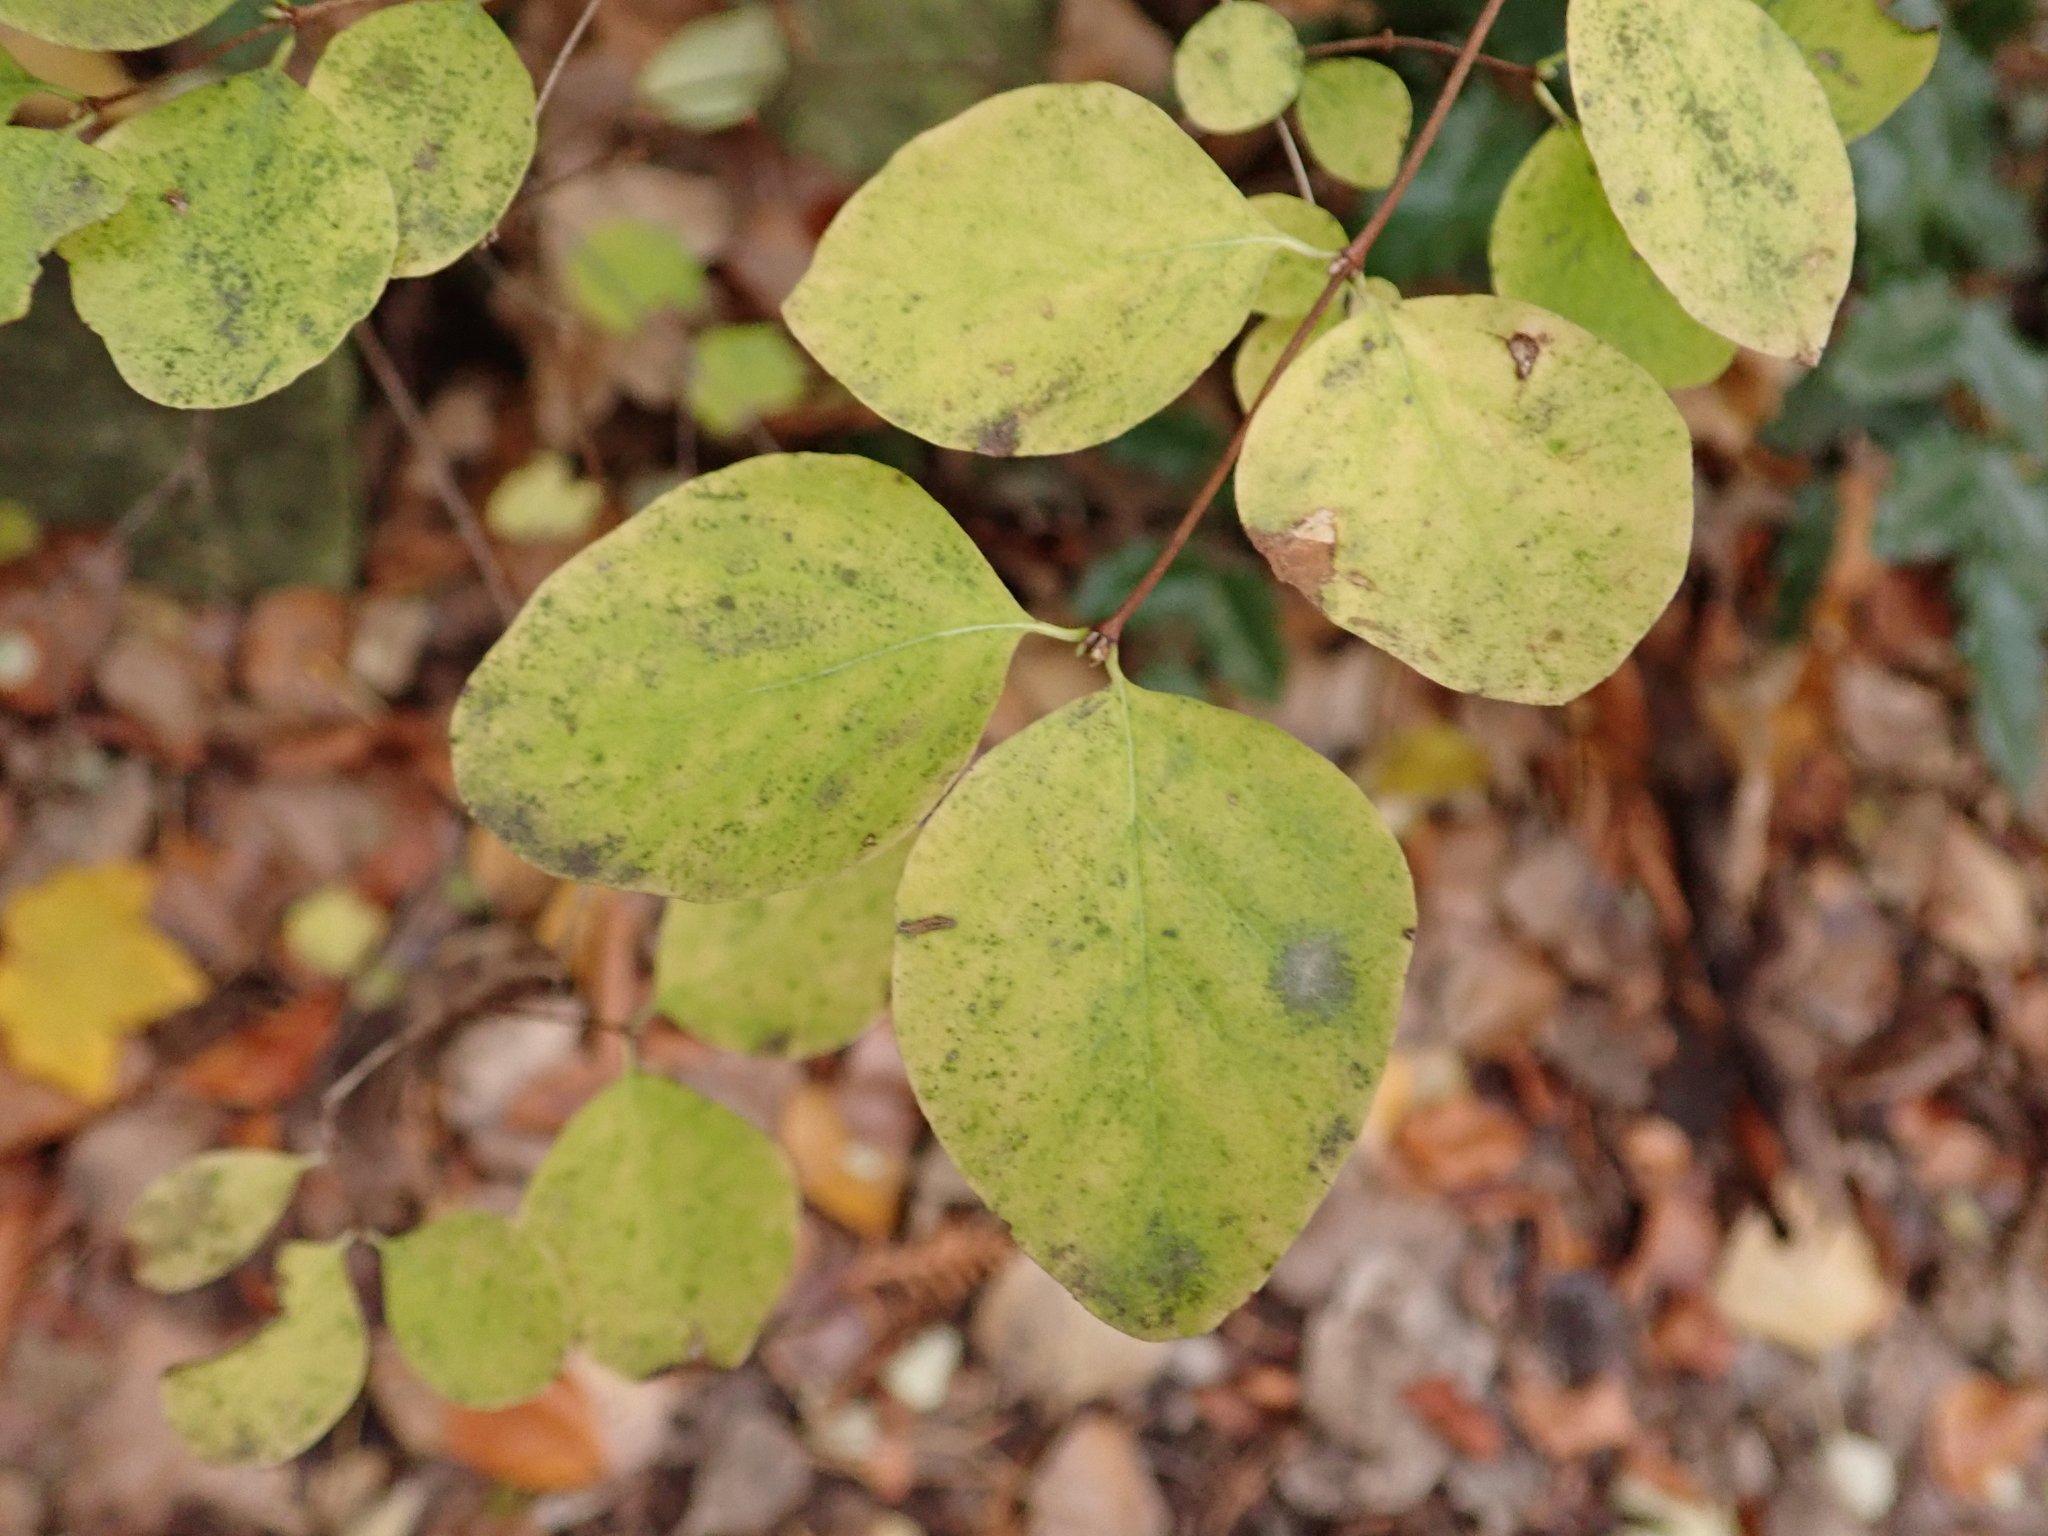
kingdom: Plantae
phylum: Tracheophyta
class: Magnoliopsida
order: Dipsacales
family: Caprifoliaceae
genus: Symphoricarpos
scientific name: Symphoricarpos albus
